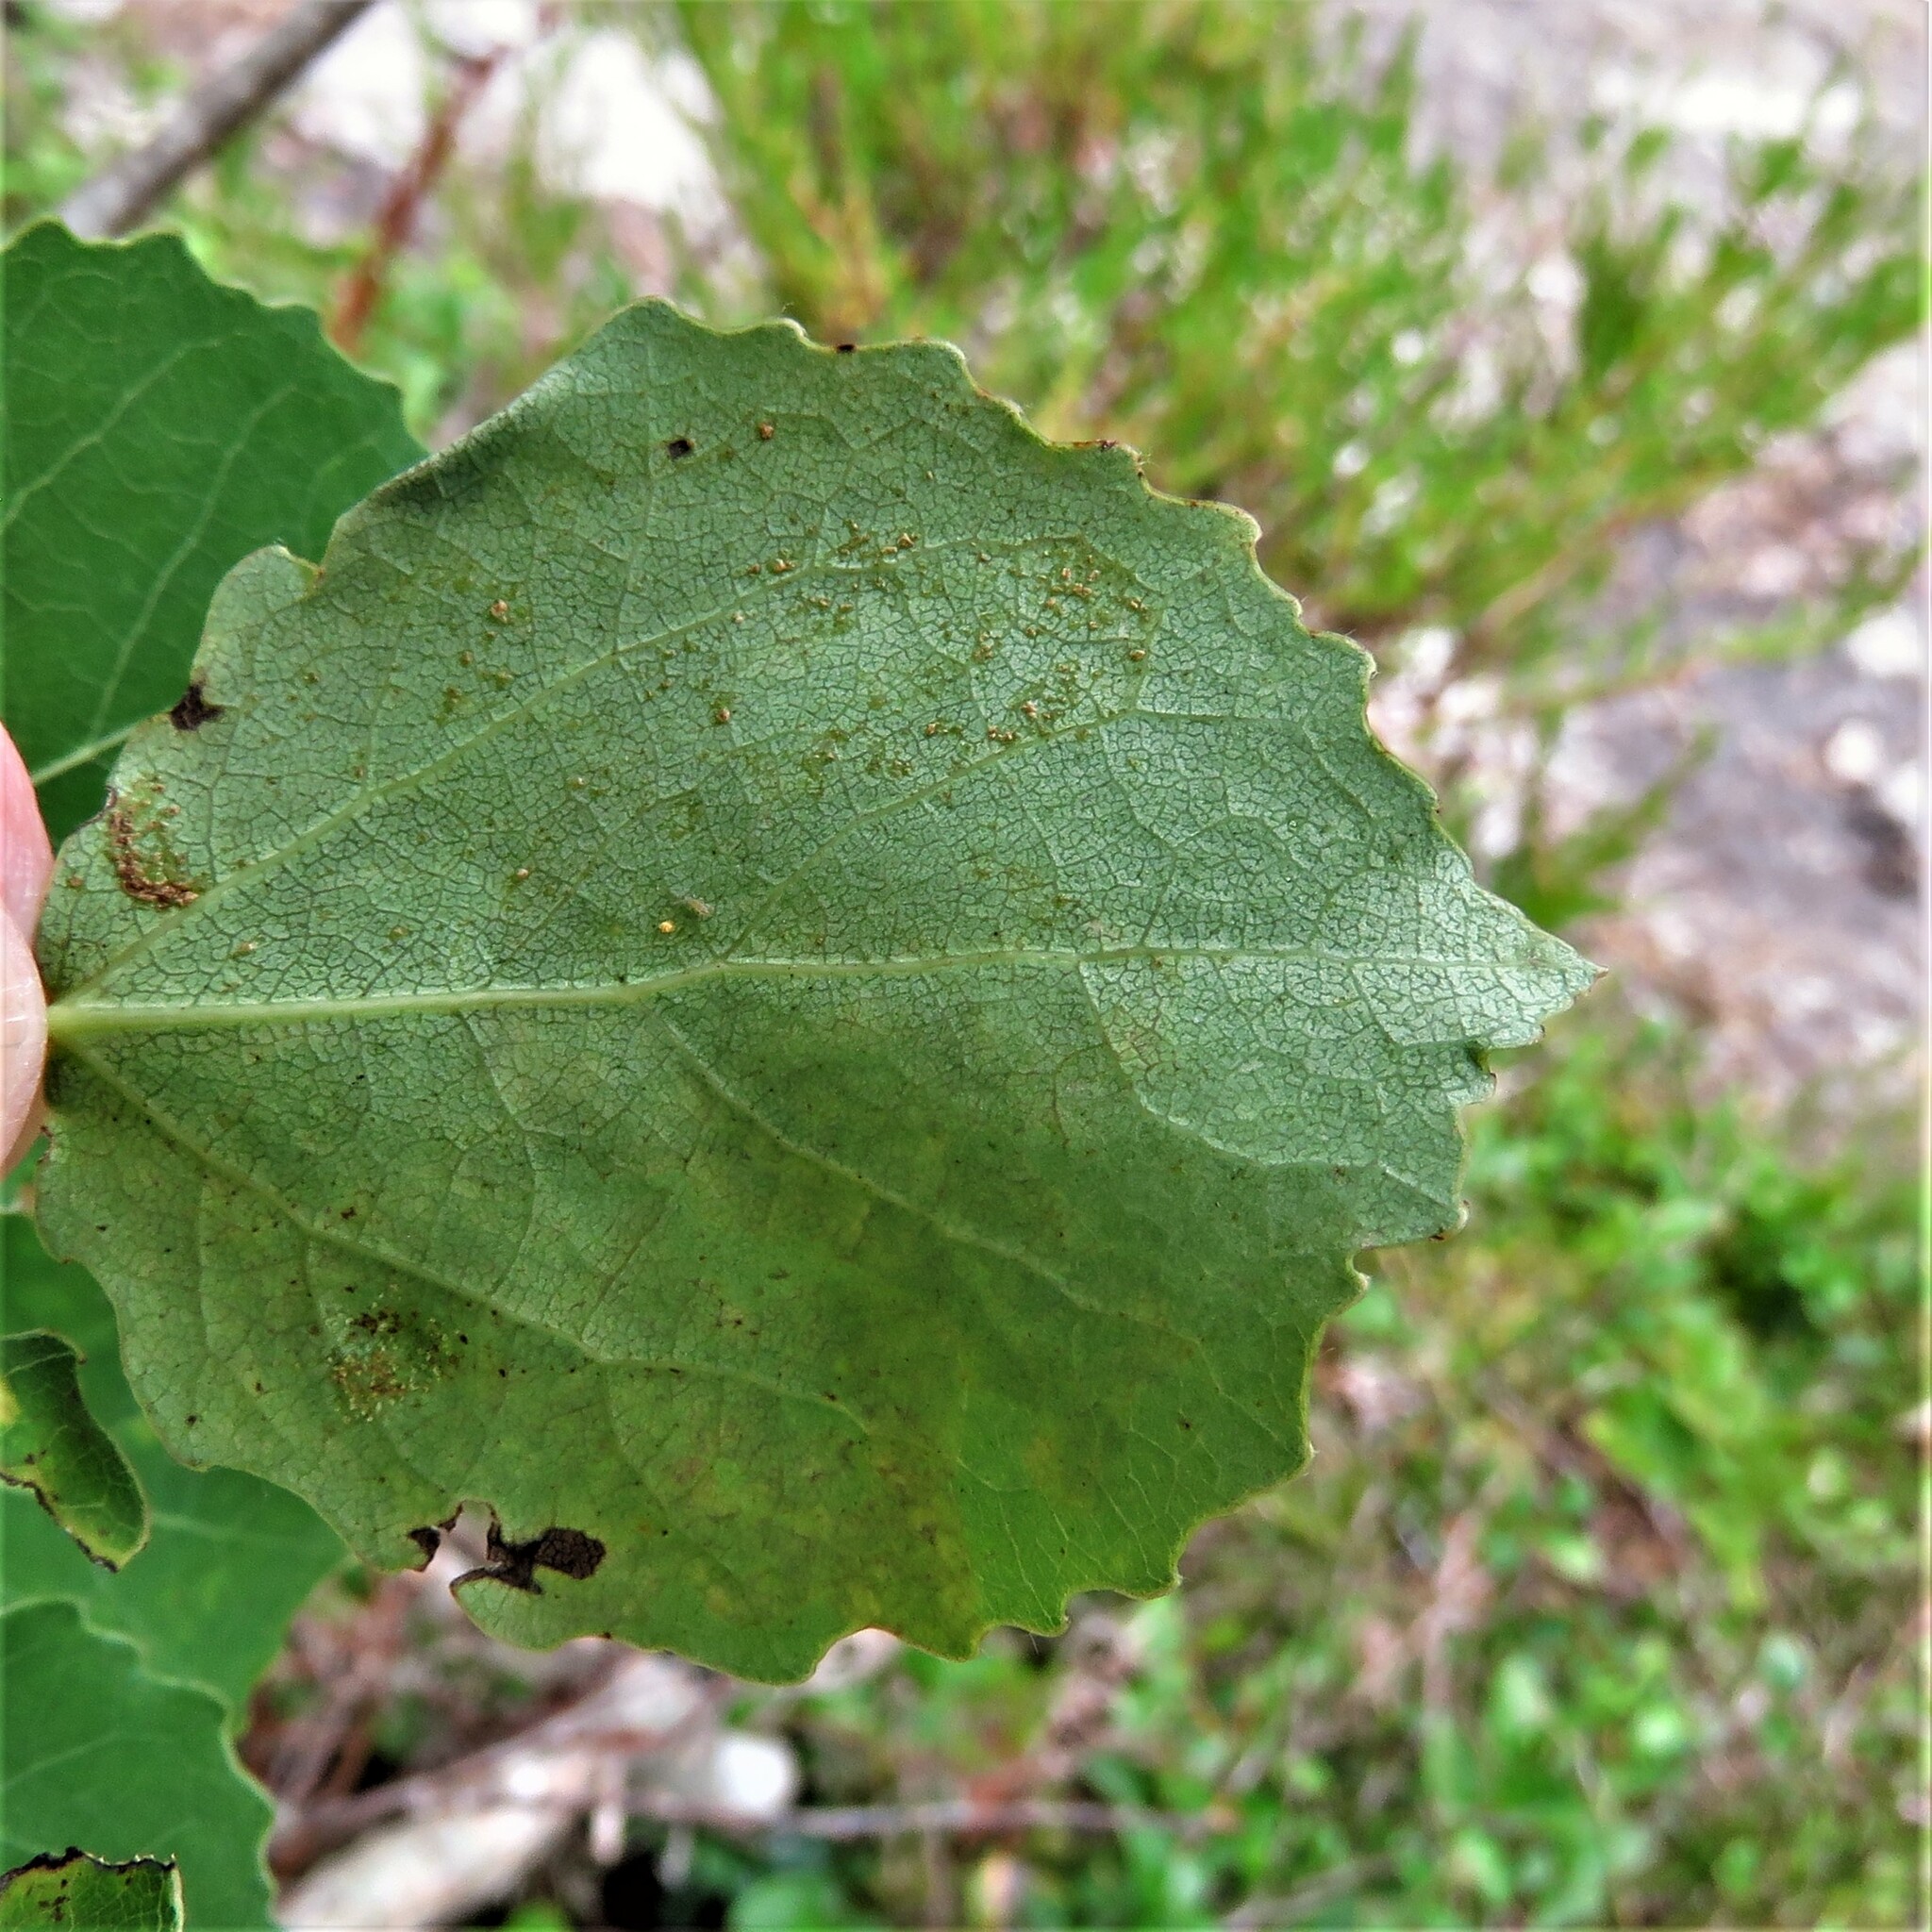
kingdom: Animalia
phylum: Arthropoda
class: Insecta
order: Lepidoptera
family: Gracillariidae
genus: Phyllocnistis
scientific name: Phyllocnistis labyrinthella
